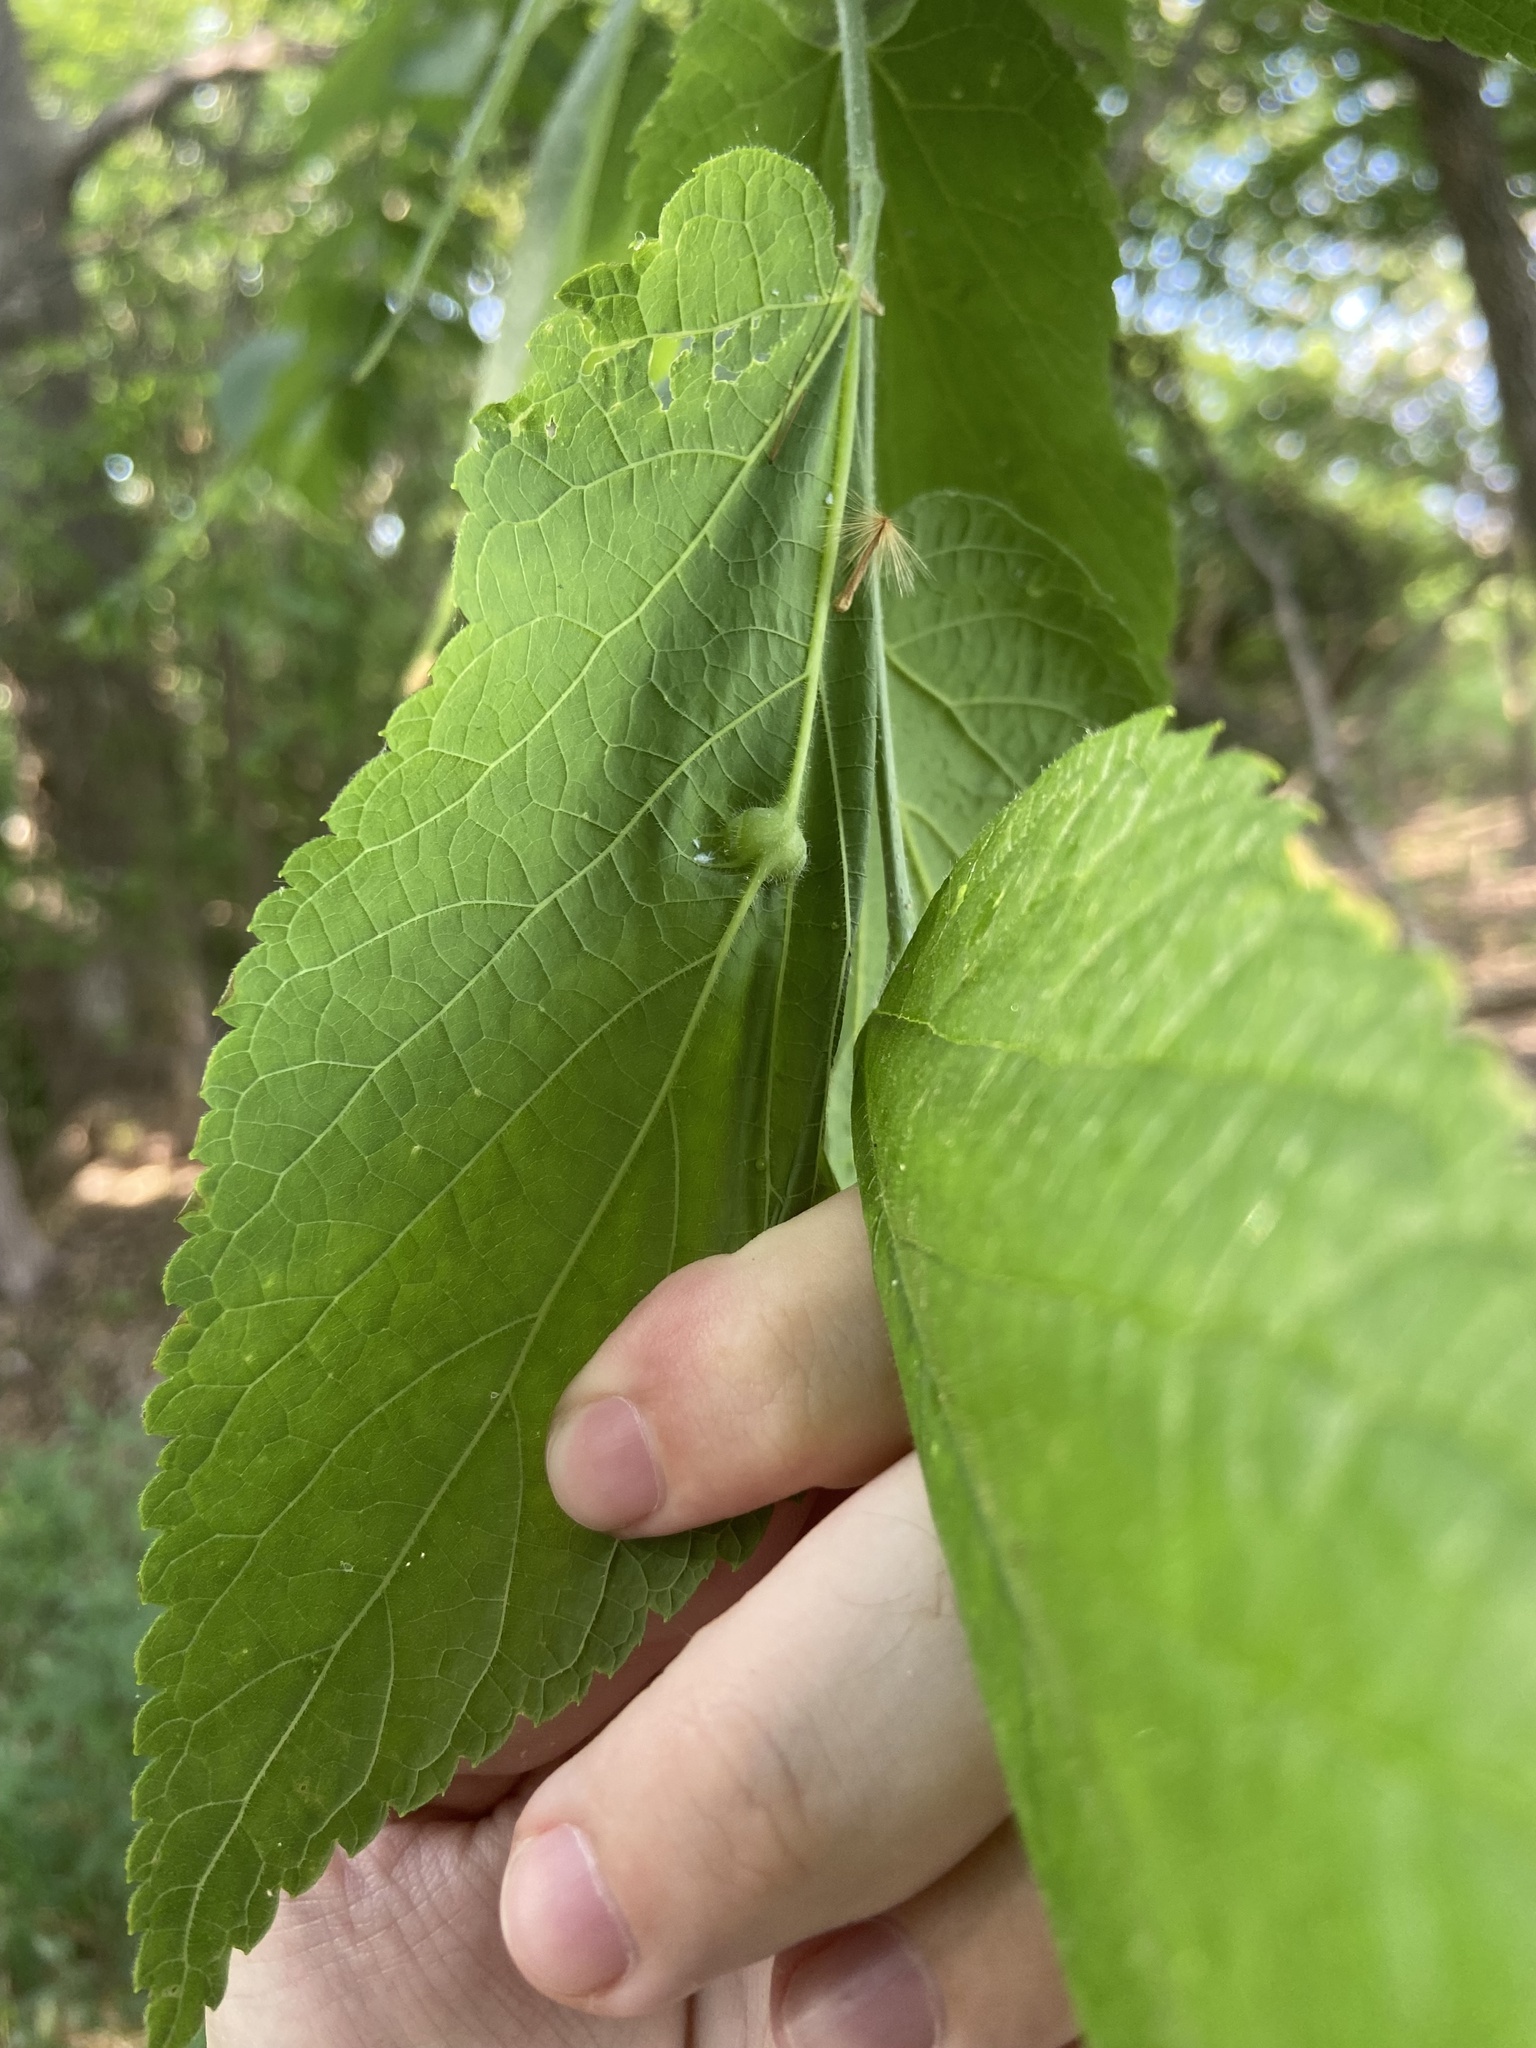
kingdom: Animalia
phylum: Arthropoda
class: Insecta
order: Diptera
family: Cecidomyiidae
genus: Celticecis
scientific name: Celticecis expulsa
